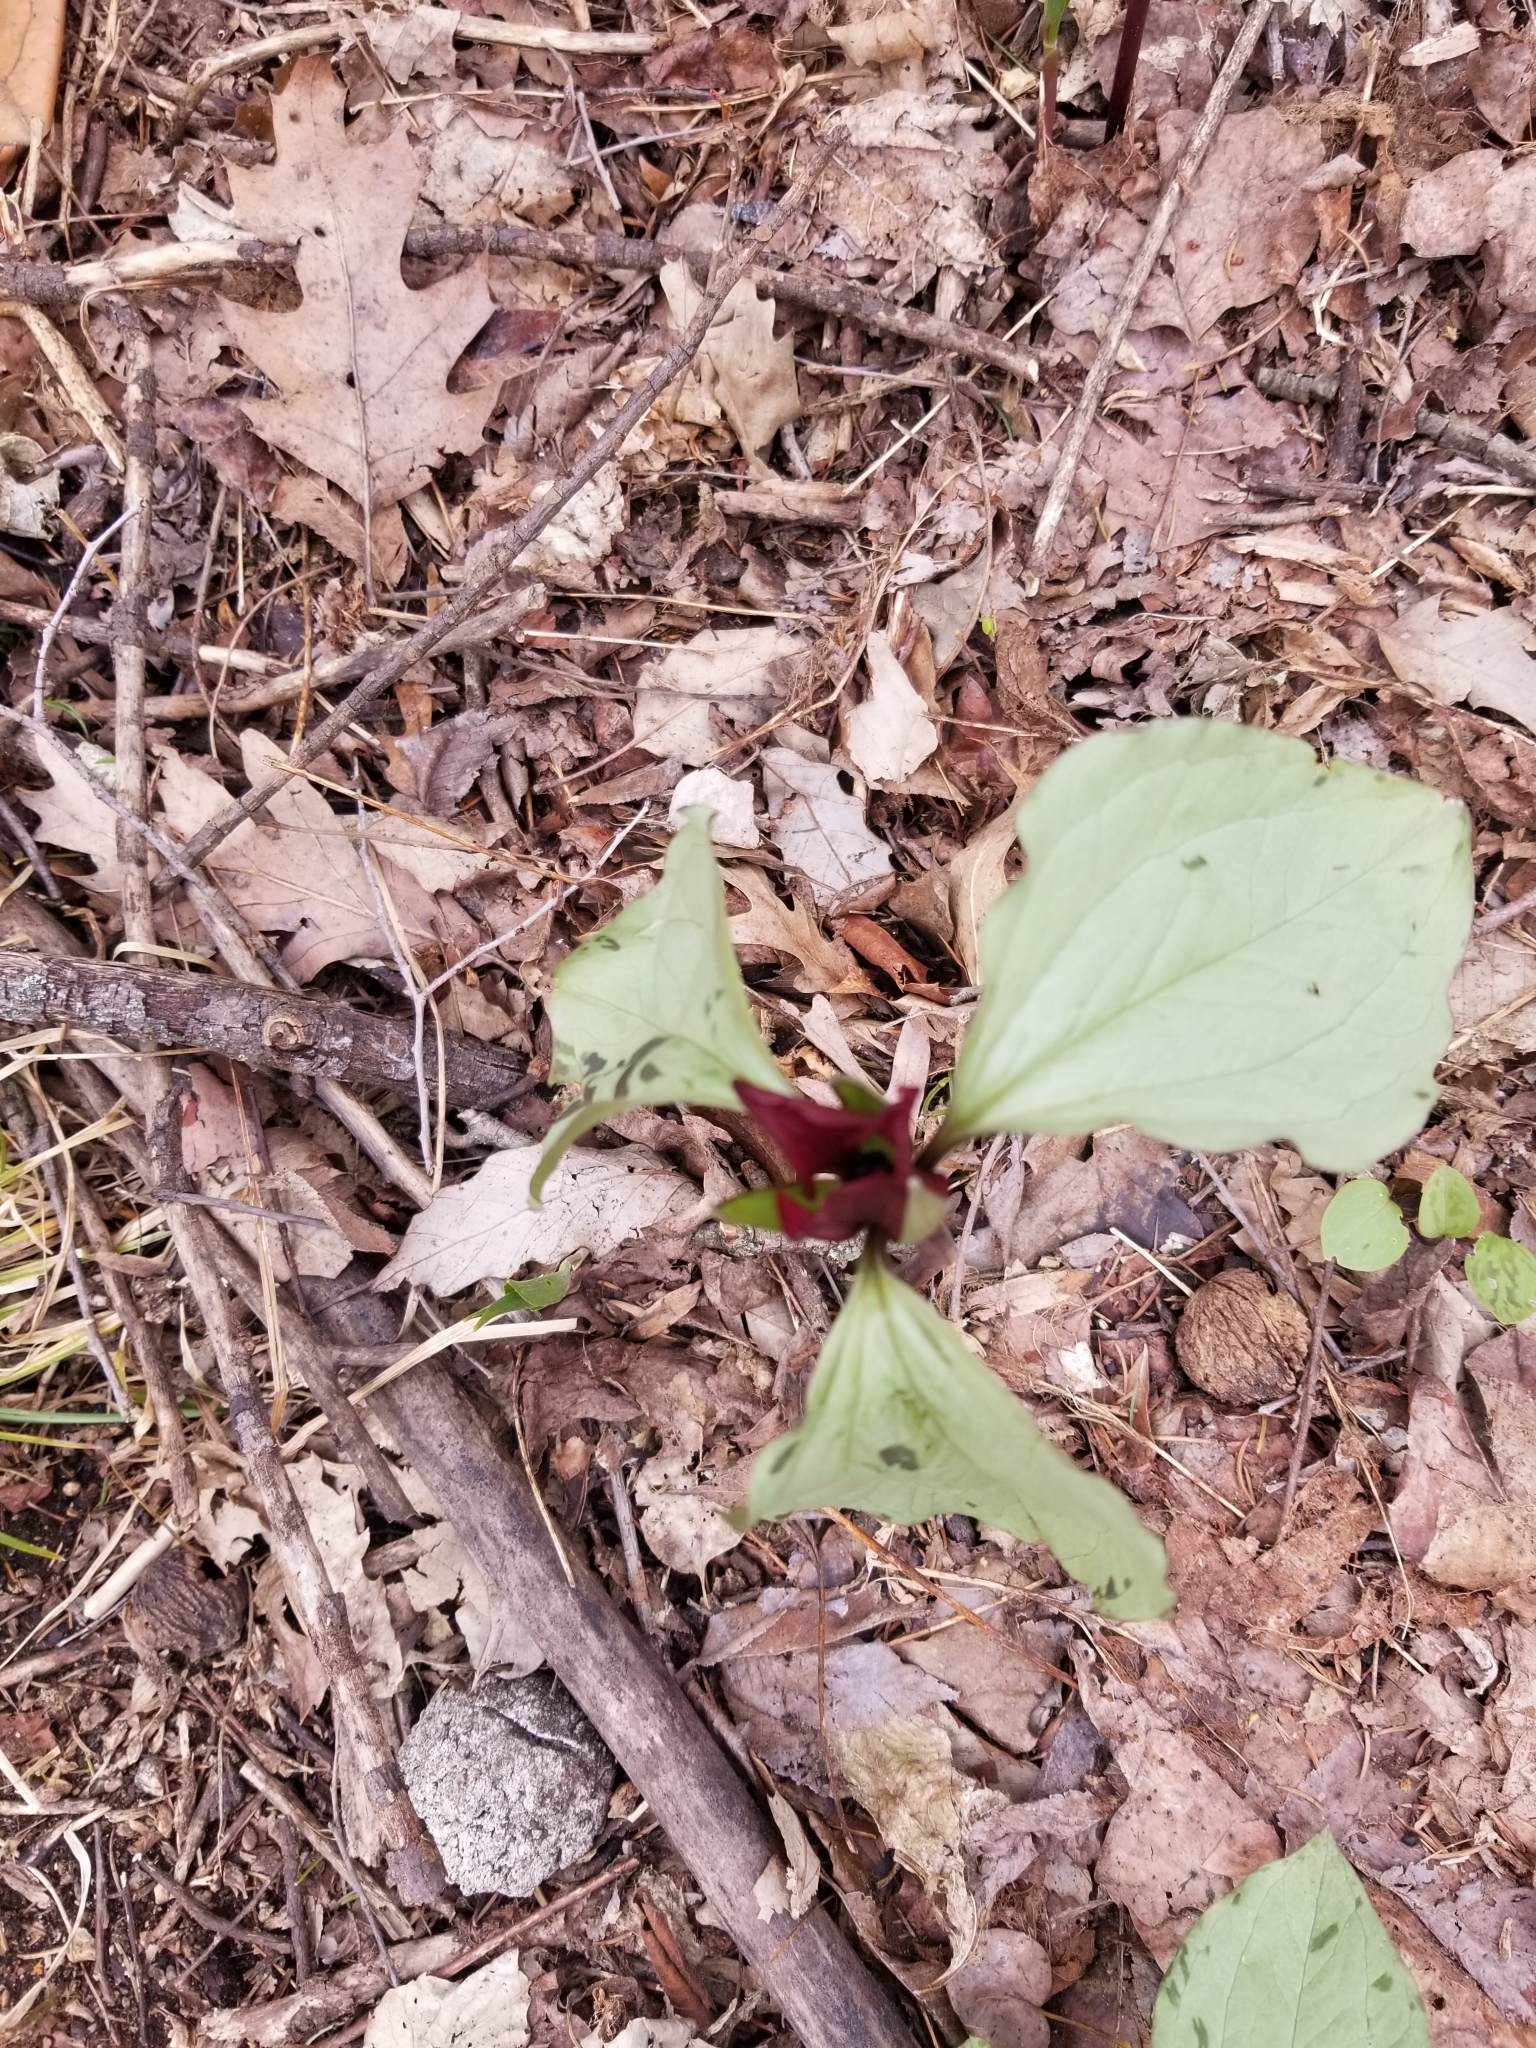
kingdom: Plantae
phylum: Tracheophyta
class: Liliopsida
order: Liliales
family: Melanthiaceae
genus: Trillium
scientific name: Trillium recurvatum
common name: Bloody butcher
